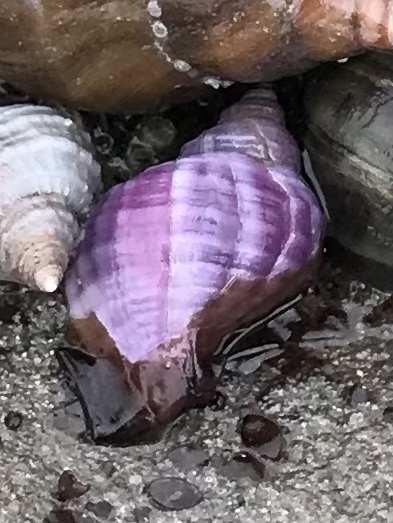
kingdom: Animalia
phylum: Mollusca
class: Gastropoda
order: Neogastropoda
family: Muricidae
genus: Nucella
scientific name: Nucella lamellosa
